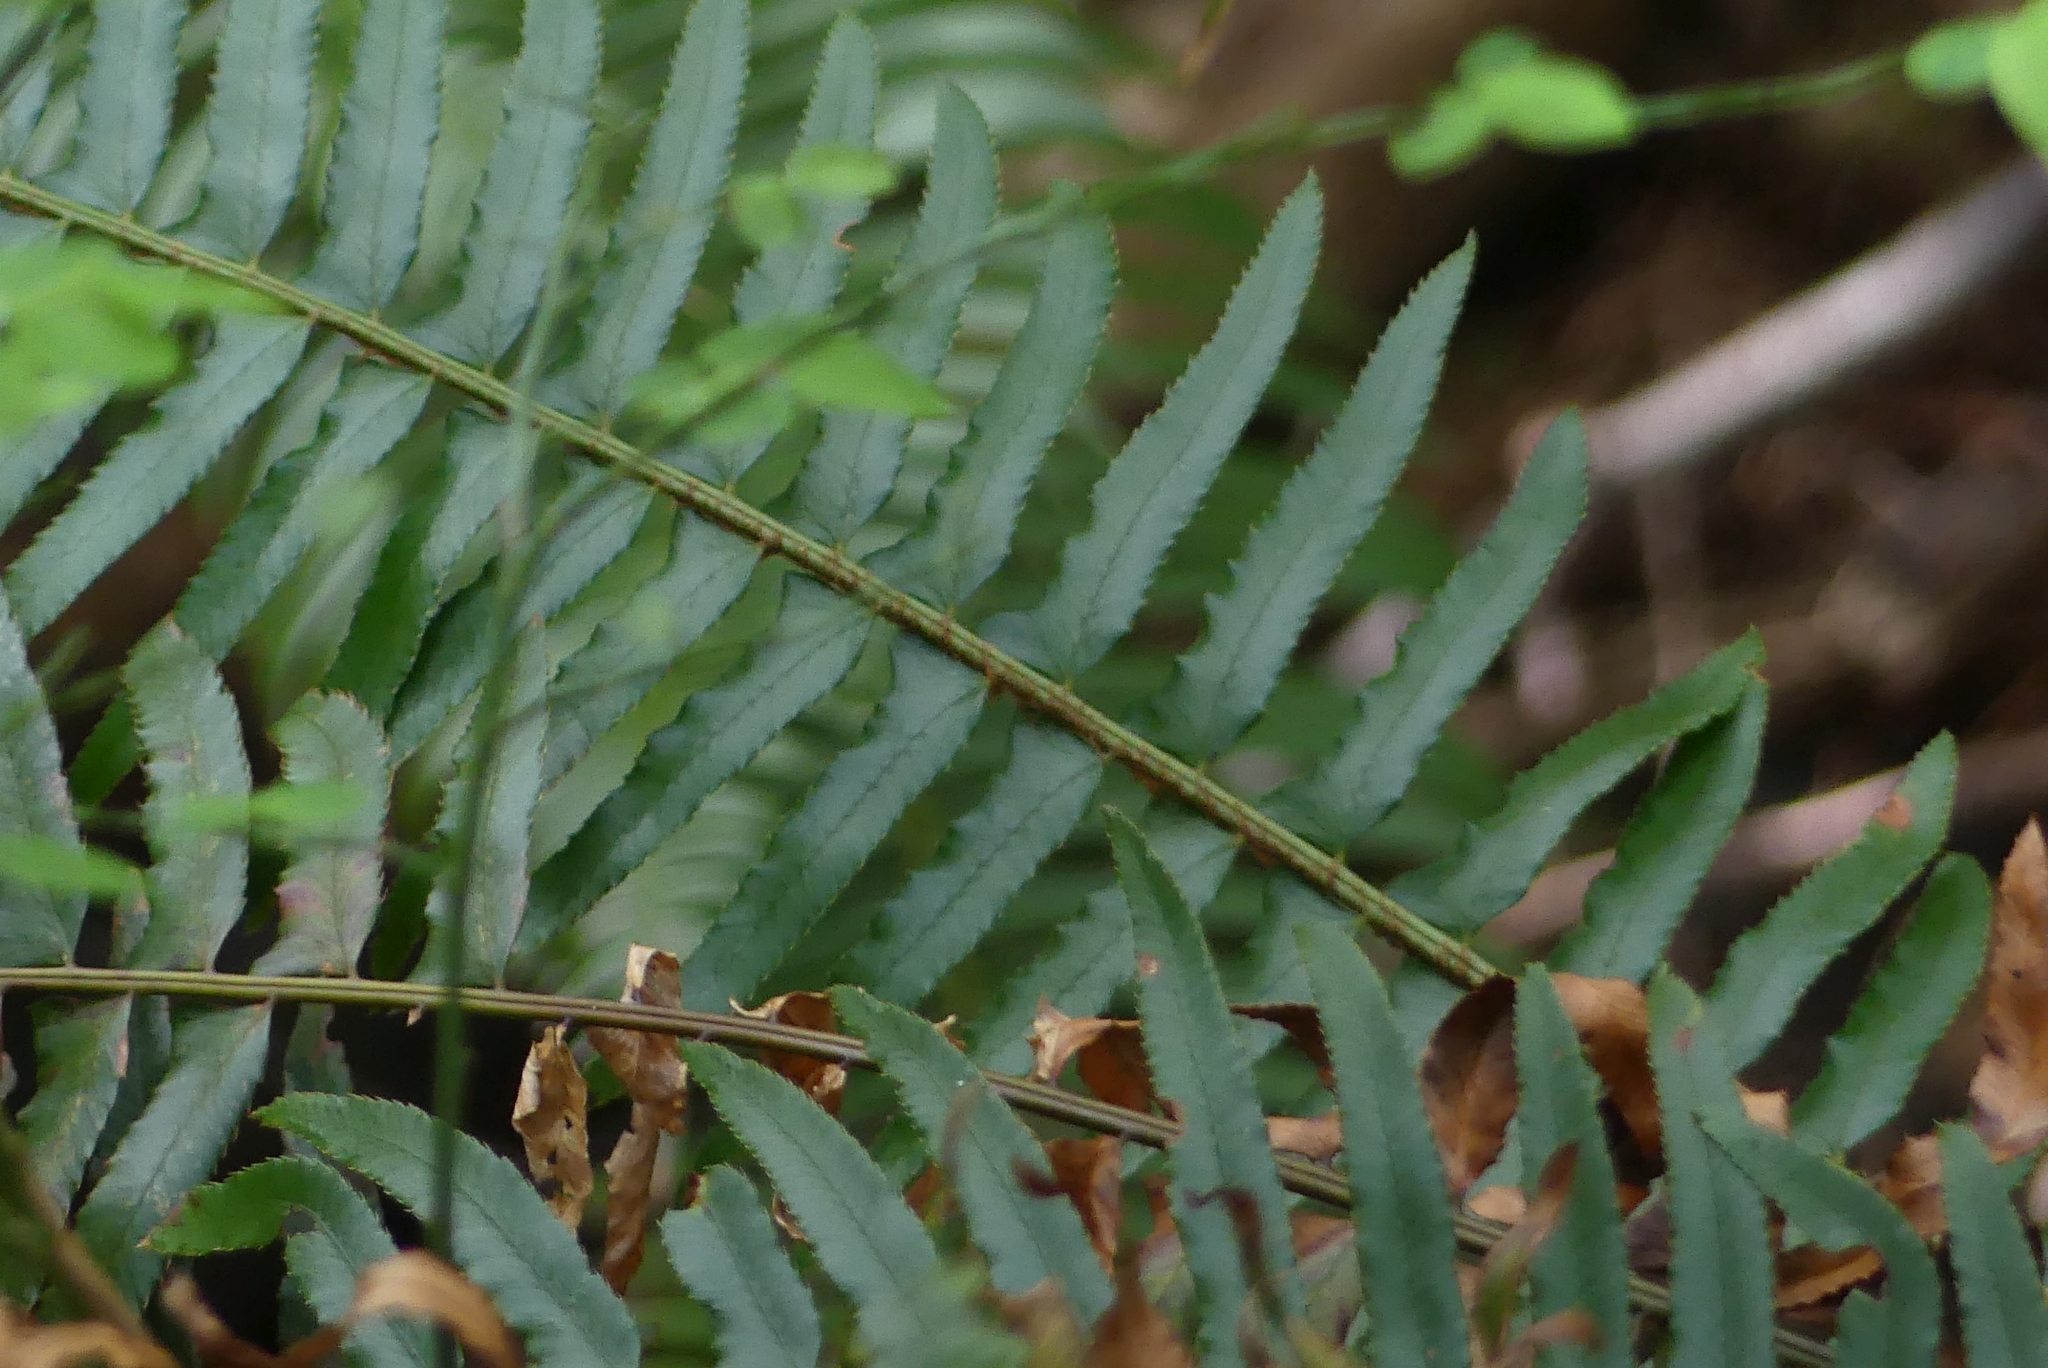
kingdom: Plantae
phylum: Tracheophyta
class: Polypodiopsida
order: Polypodiales
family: Dryopteridaceae
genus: Polystichum
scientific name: Polystichum munitum
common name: Western sword-fern
